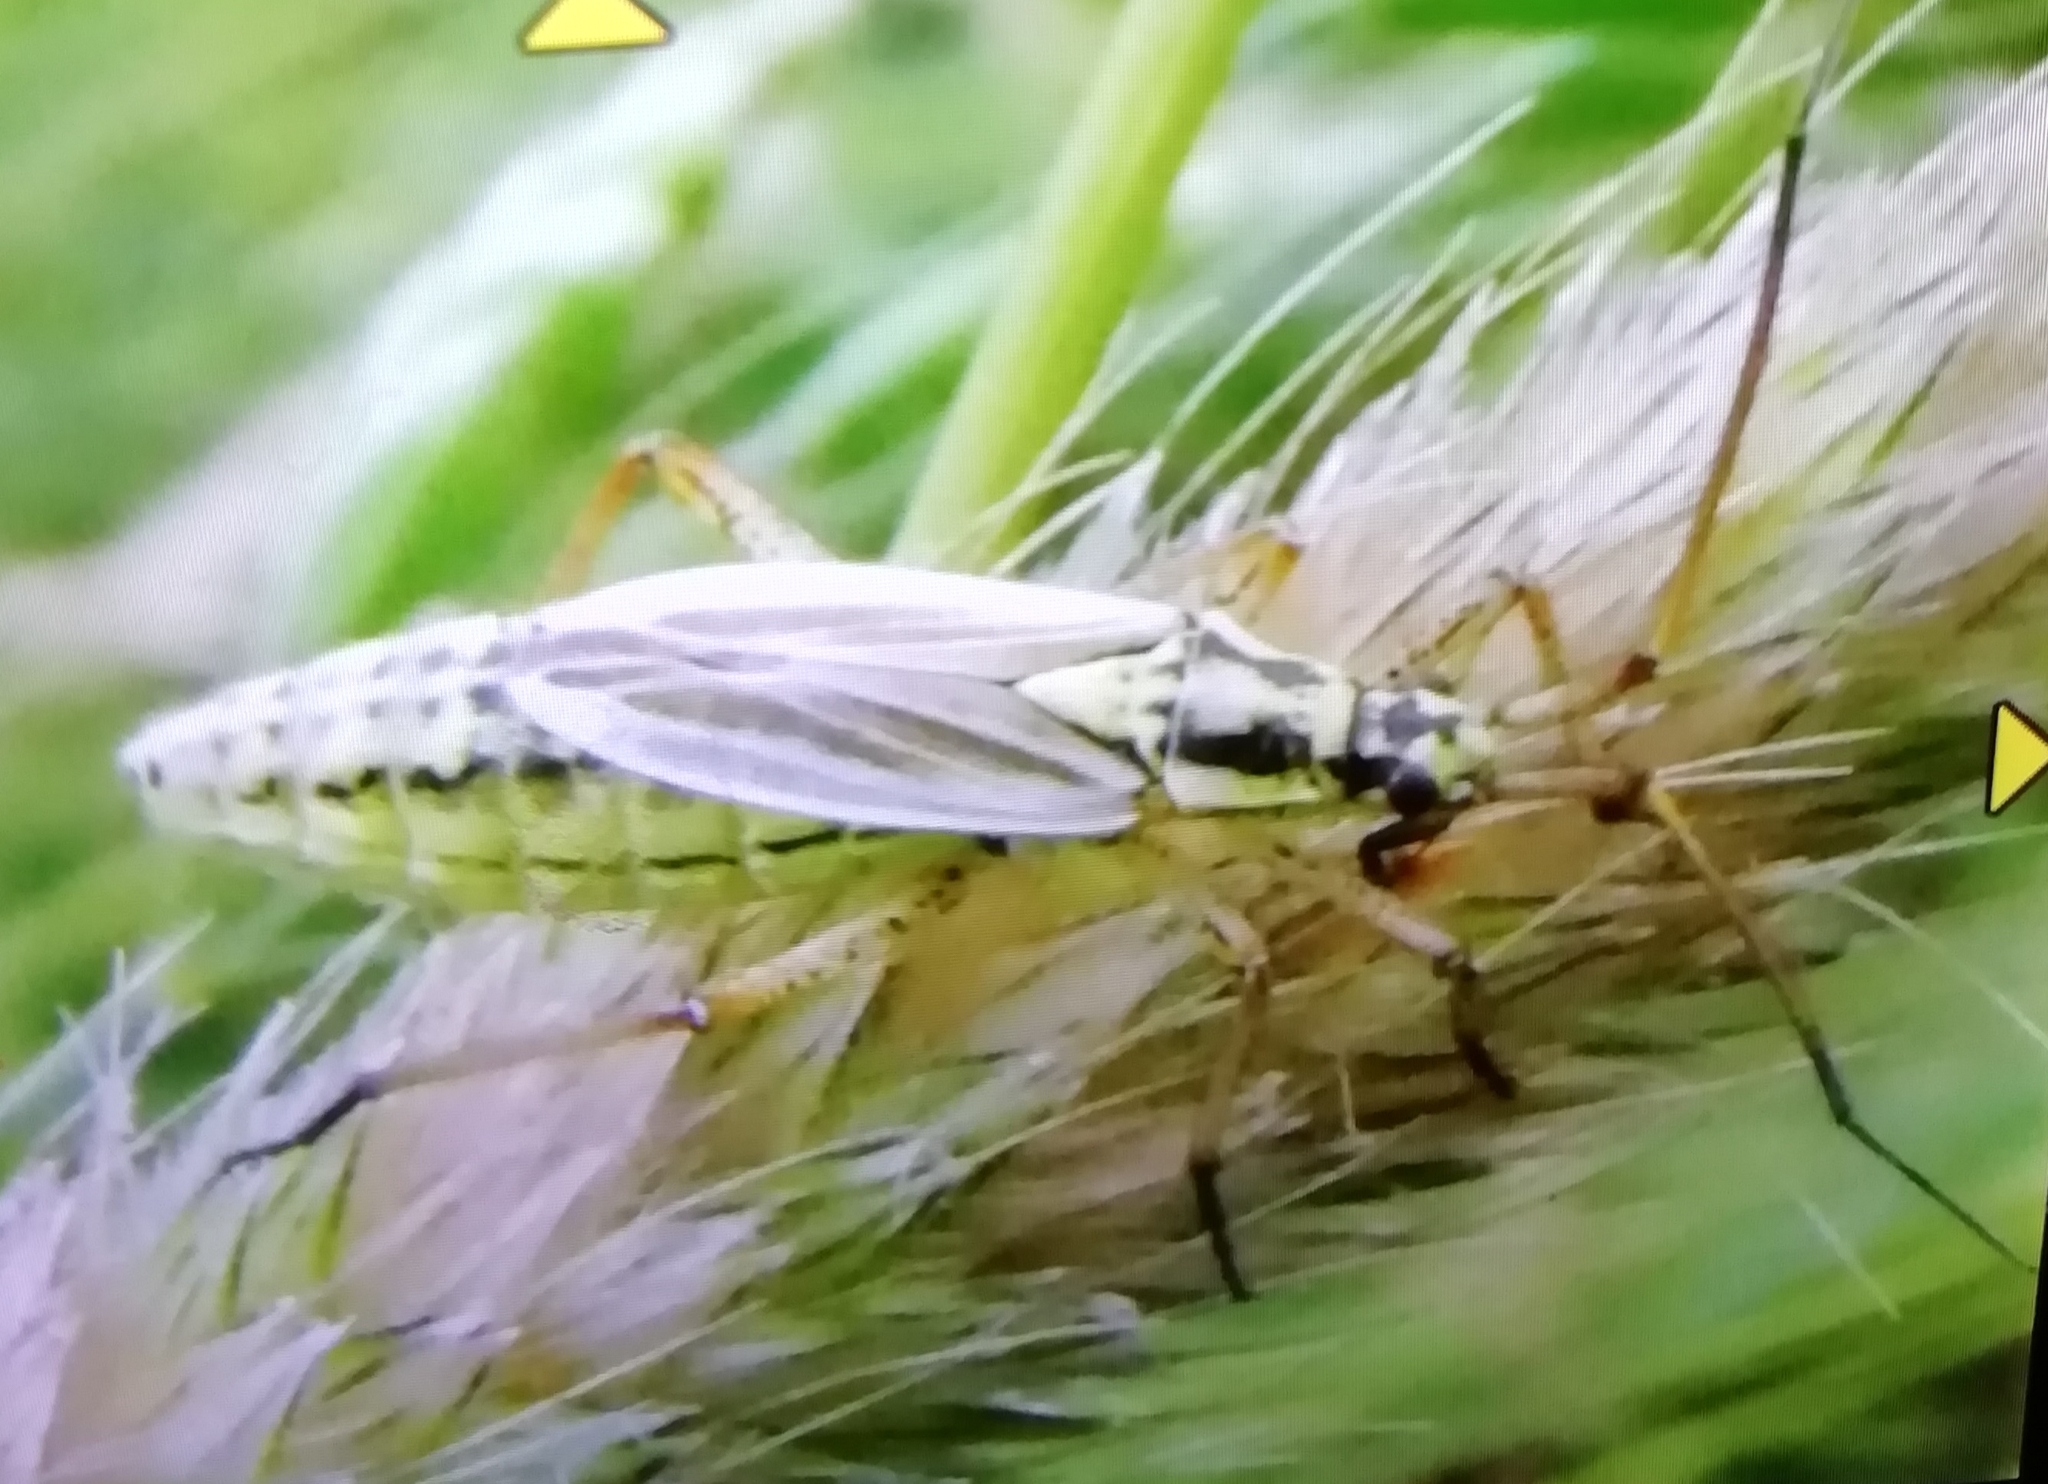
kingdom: Animalia
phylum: Arthropoda
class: Insecta
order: Hemiptera
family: Miridae
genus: Leptopterna
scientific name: Leptopterna dolabrata
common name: Meadow plant bug
